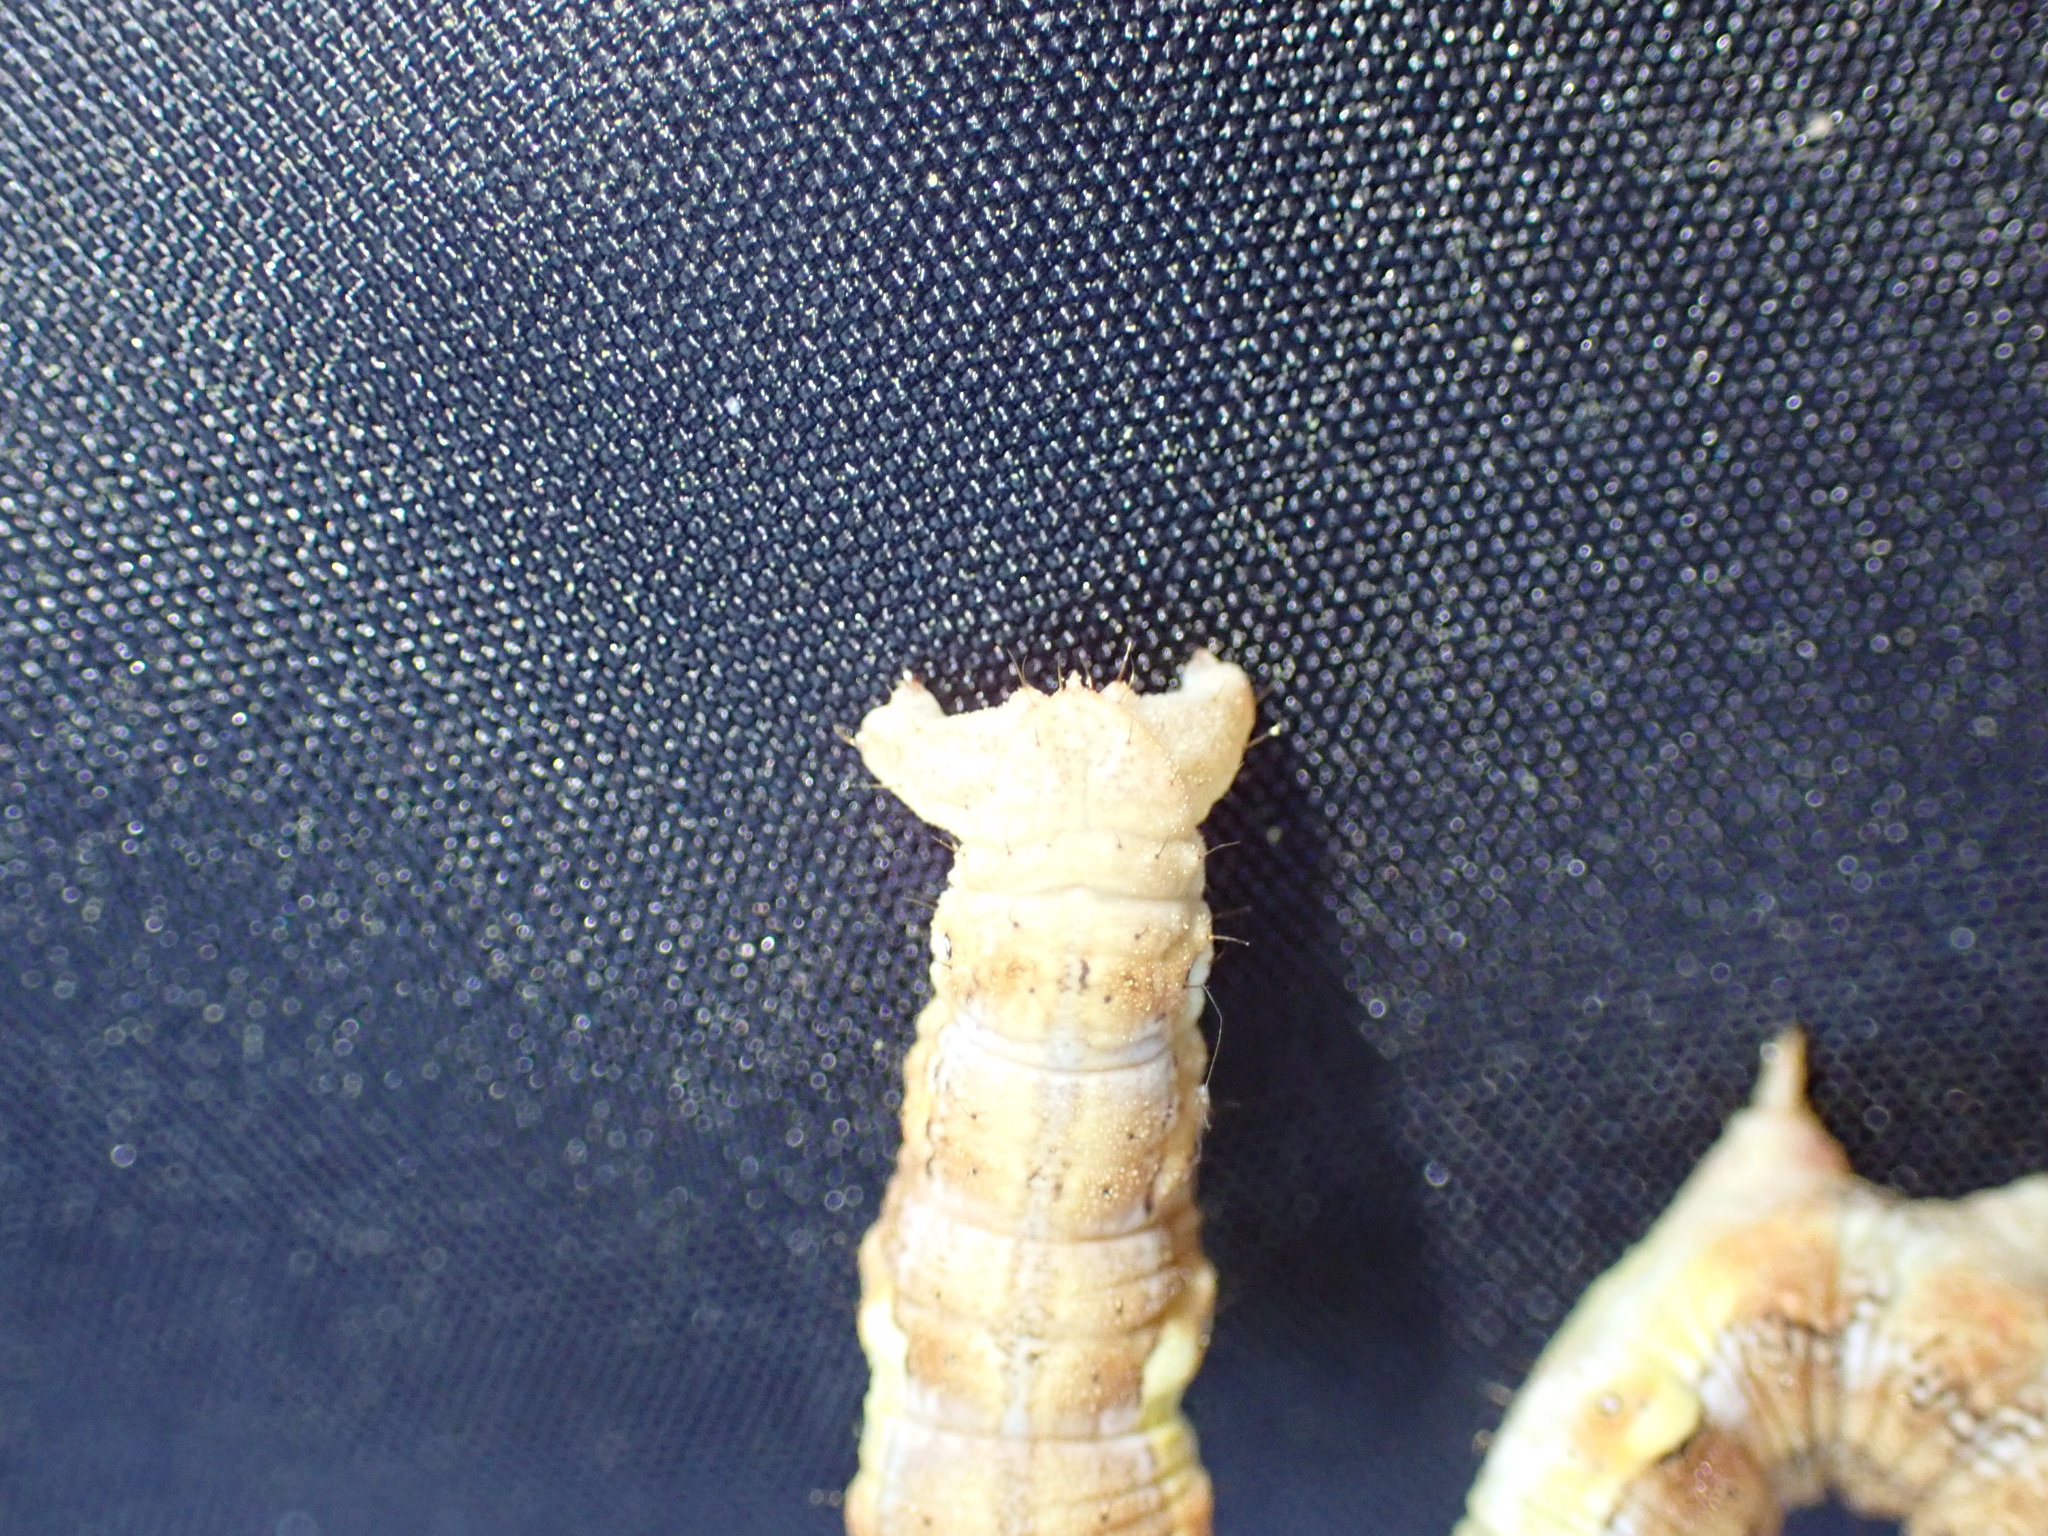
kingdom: Animalia
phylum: Arthropoda
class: Insecta
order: Lepidoptera
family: Geometridae
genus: Erannis
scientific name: Erannis defoliaria
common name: Mottled umber
